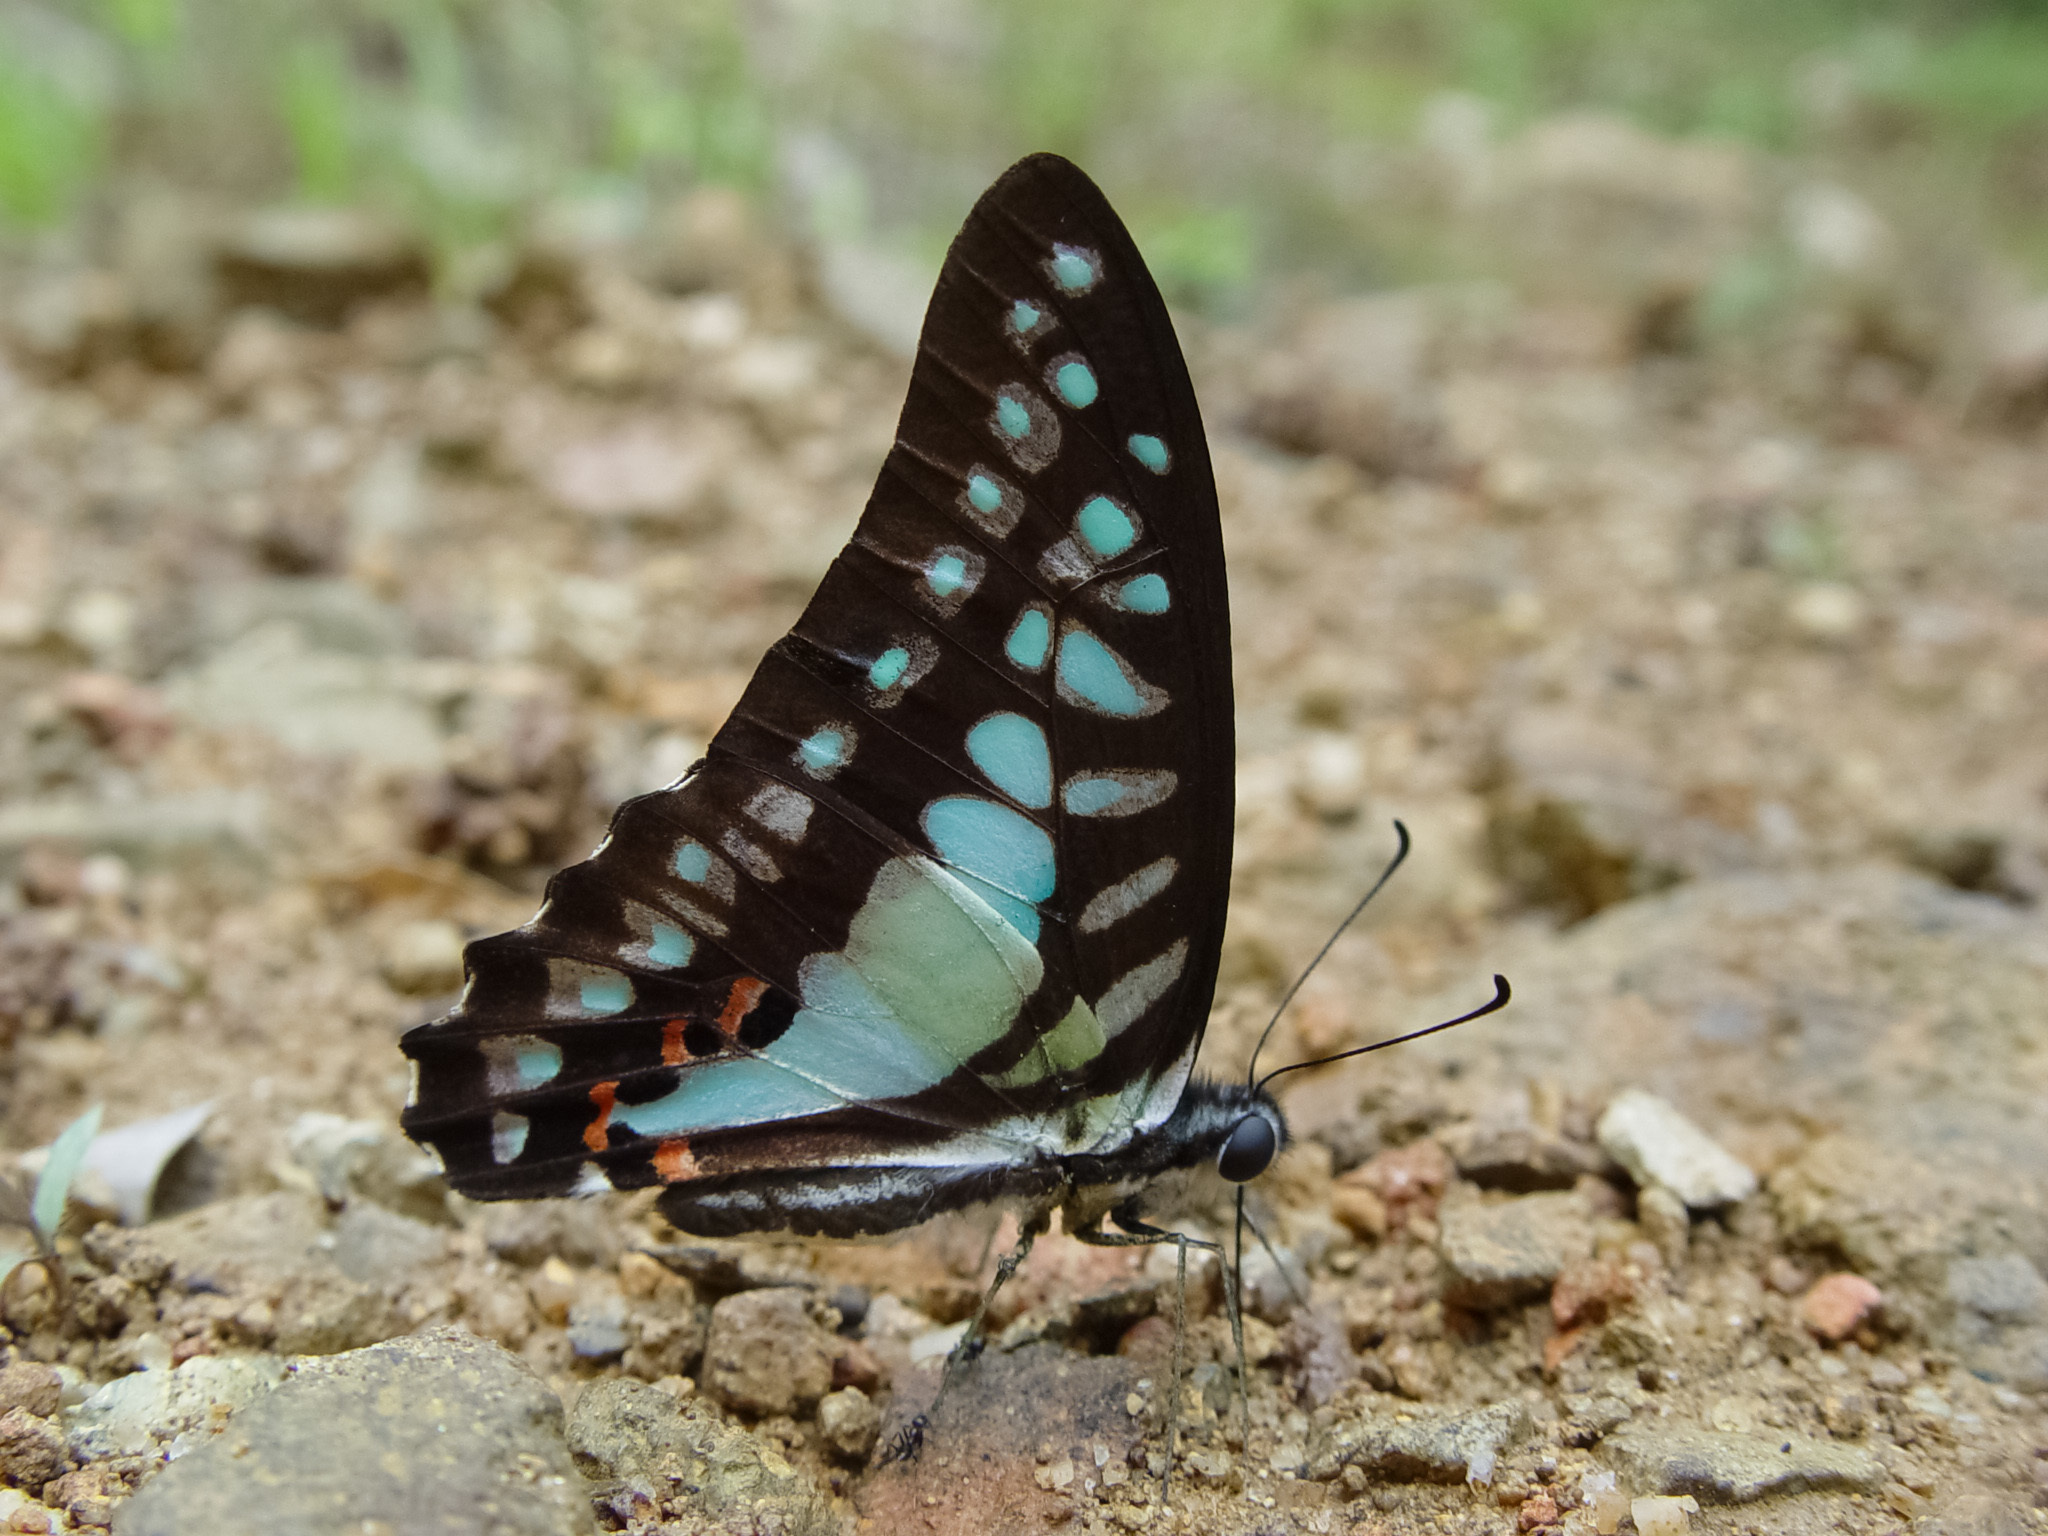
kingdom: Animalia
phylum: Arthropoda
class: Insecta
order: Lepidoptera
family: Papilionidae
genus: Graphium
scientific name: Graphium evemon
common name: Lesser jay
